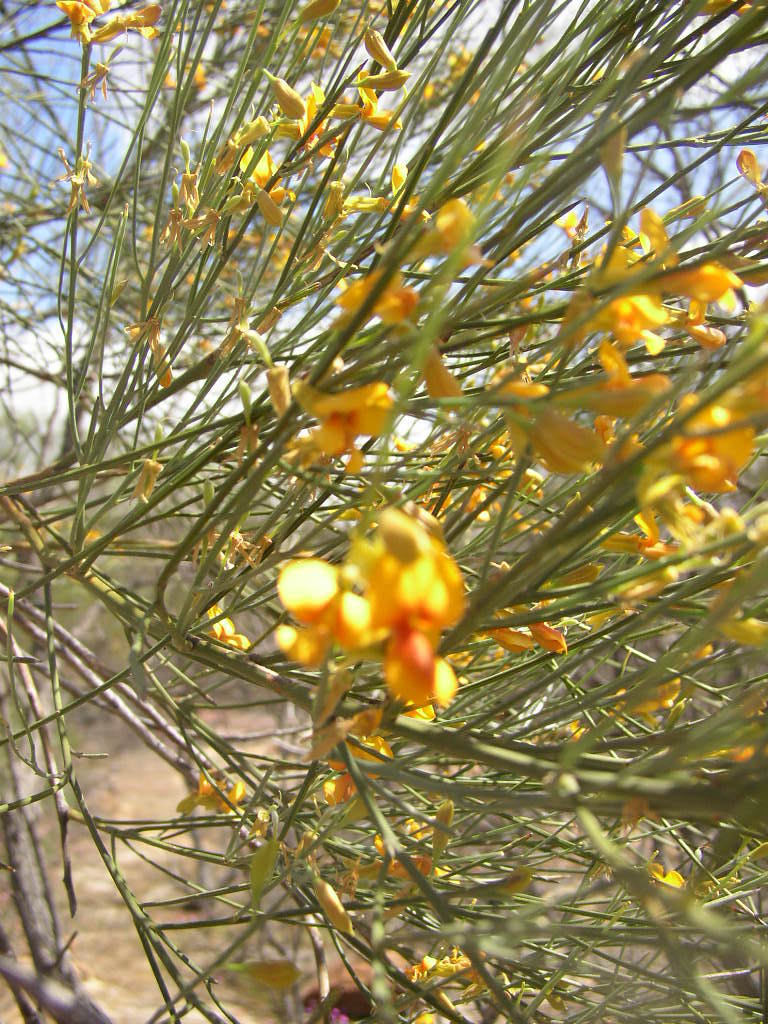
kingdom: Plantae
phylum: Tracheophyta
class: Magnoliopsida
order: Fabales
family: Fabaceae
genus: Jacksonia
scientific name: Jacksonia cupulifera
